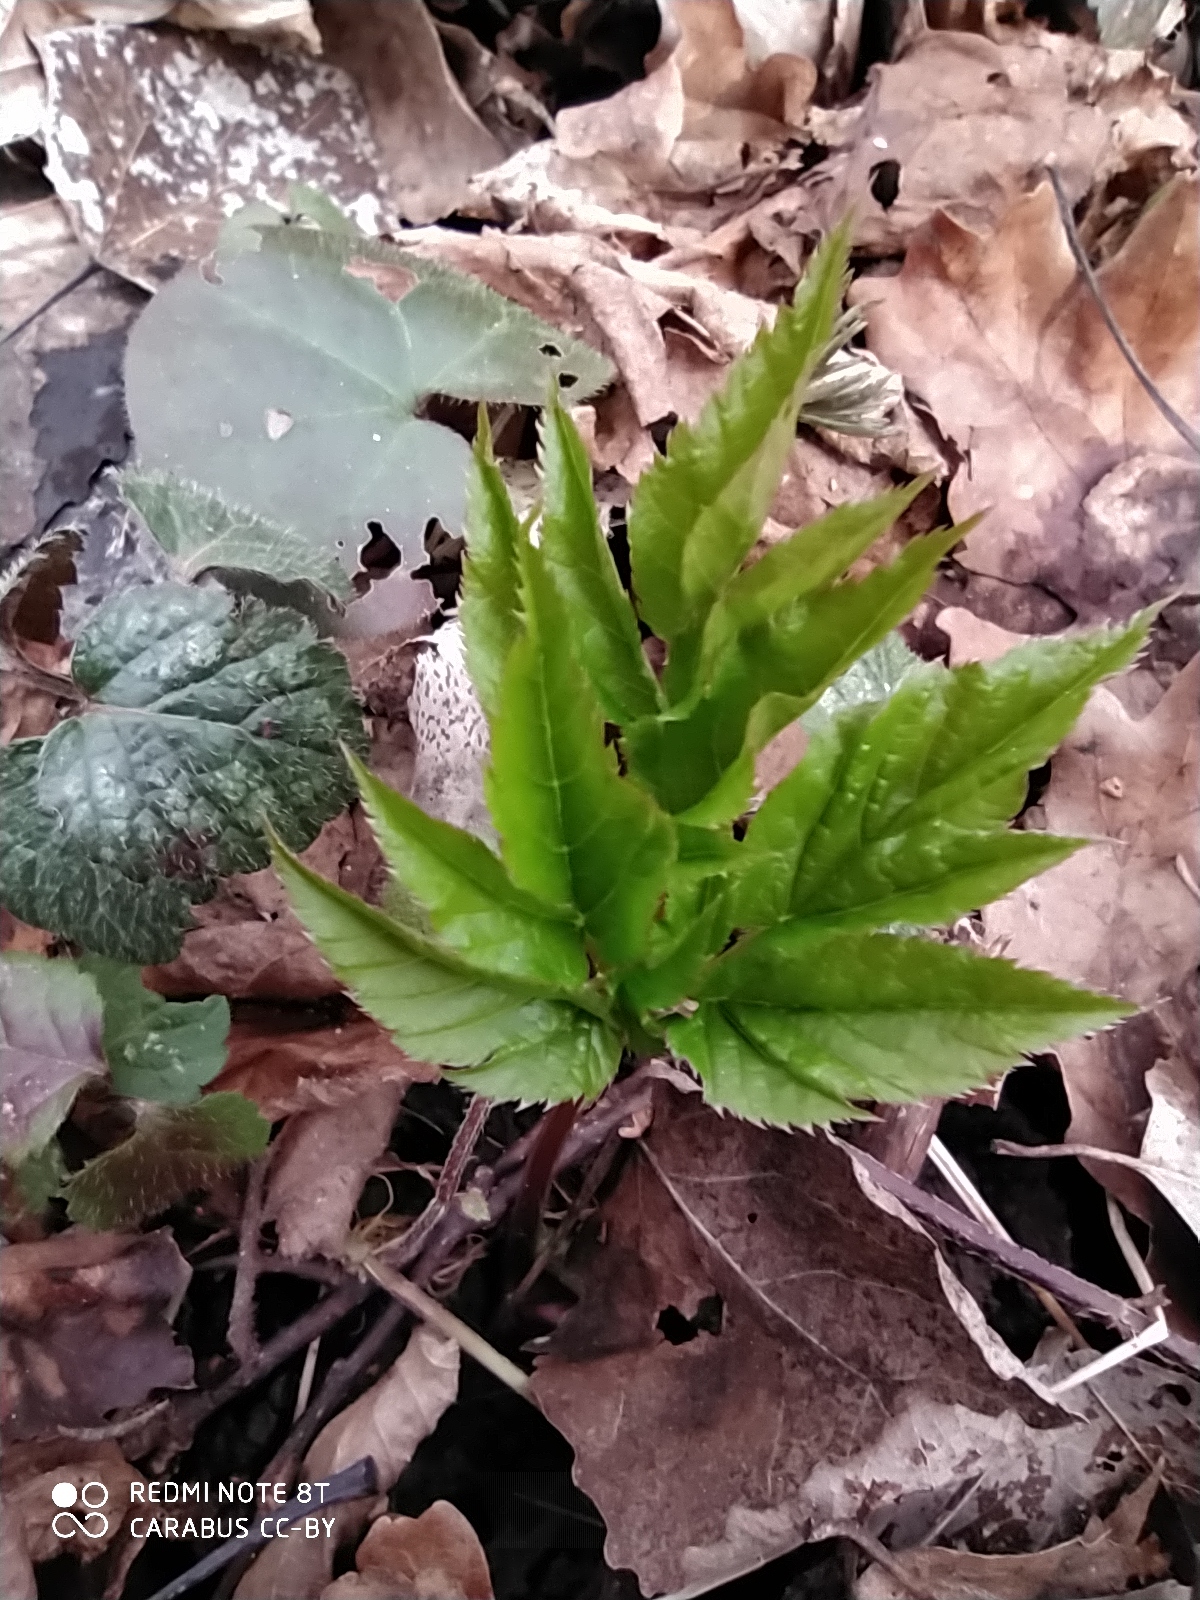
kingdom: Plantae
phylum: Tracheophyta
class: Magnoliopsida
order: Apiales
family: Apiaceae
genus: Aegopodium
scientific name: Aegopodium podagraria
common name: Ground-elder
